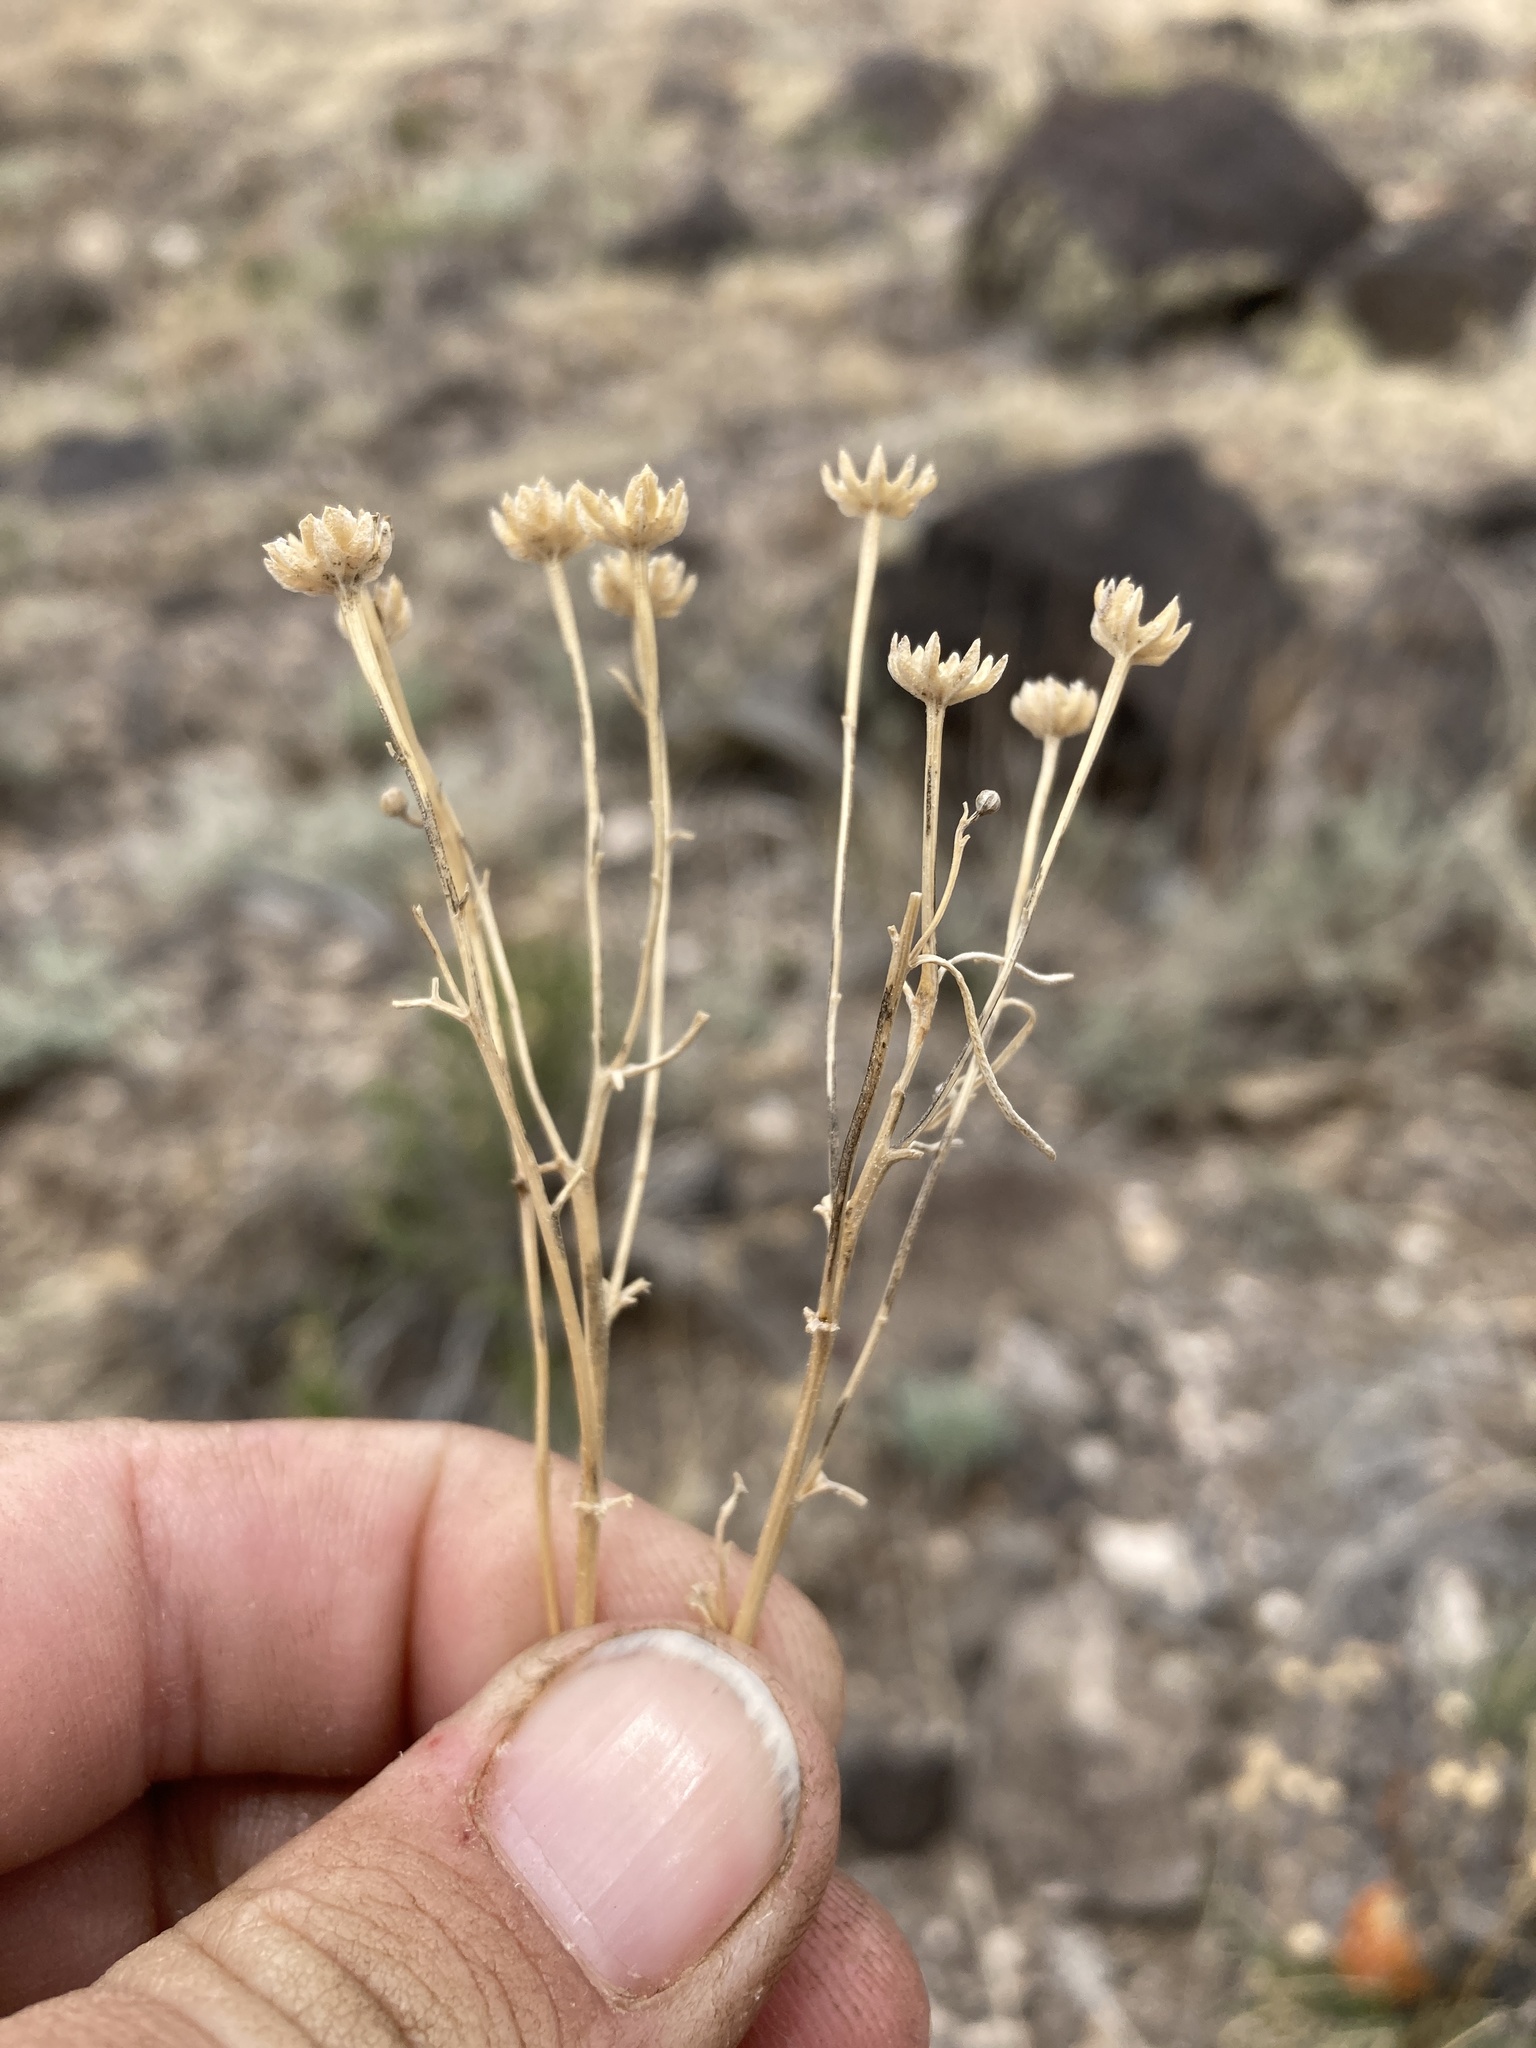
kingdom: Plantae
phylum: Tracheophyta
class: Magnoliopsida
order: Asterales
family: Asteraceae
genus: Hymenoxys
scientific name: Hymenoxys richardsonii
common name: Pingue rubberweed
